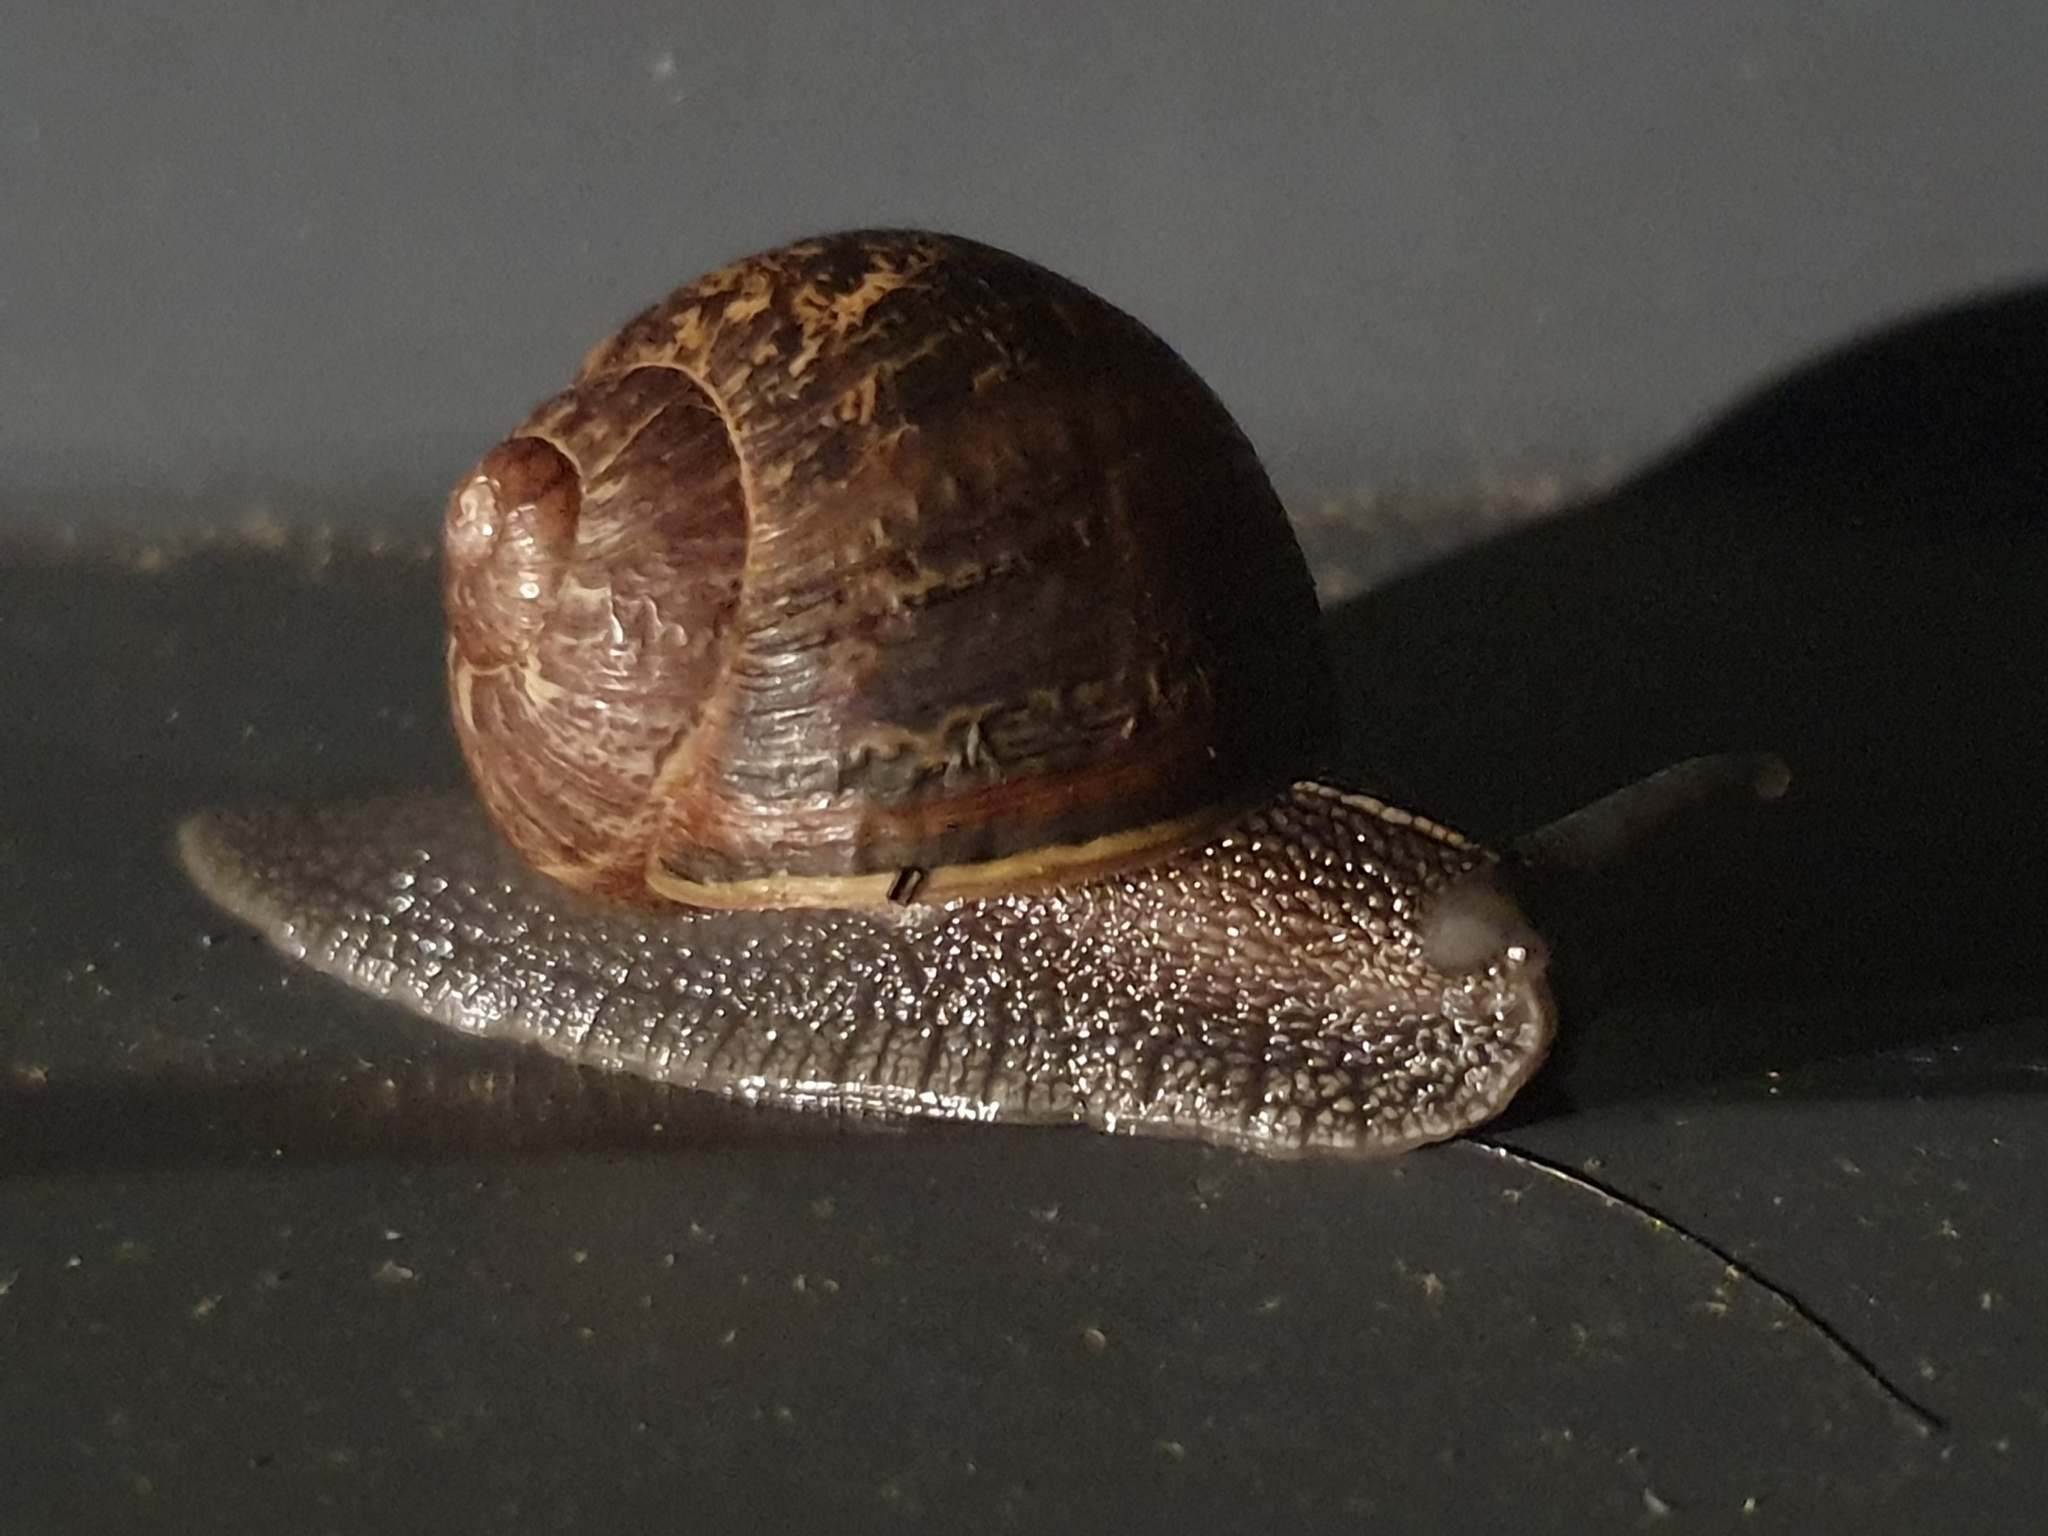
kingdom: Animalia
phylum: Mollusca
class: Gastropoda
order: Stylommatophora
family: Helicidae
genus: Cornu
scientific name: Cornu aspersum
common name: Brown garden snail
